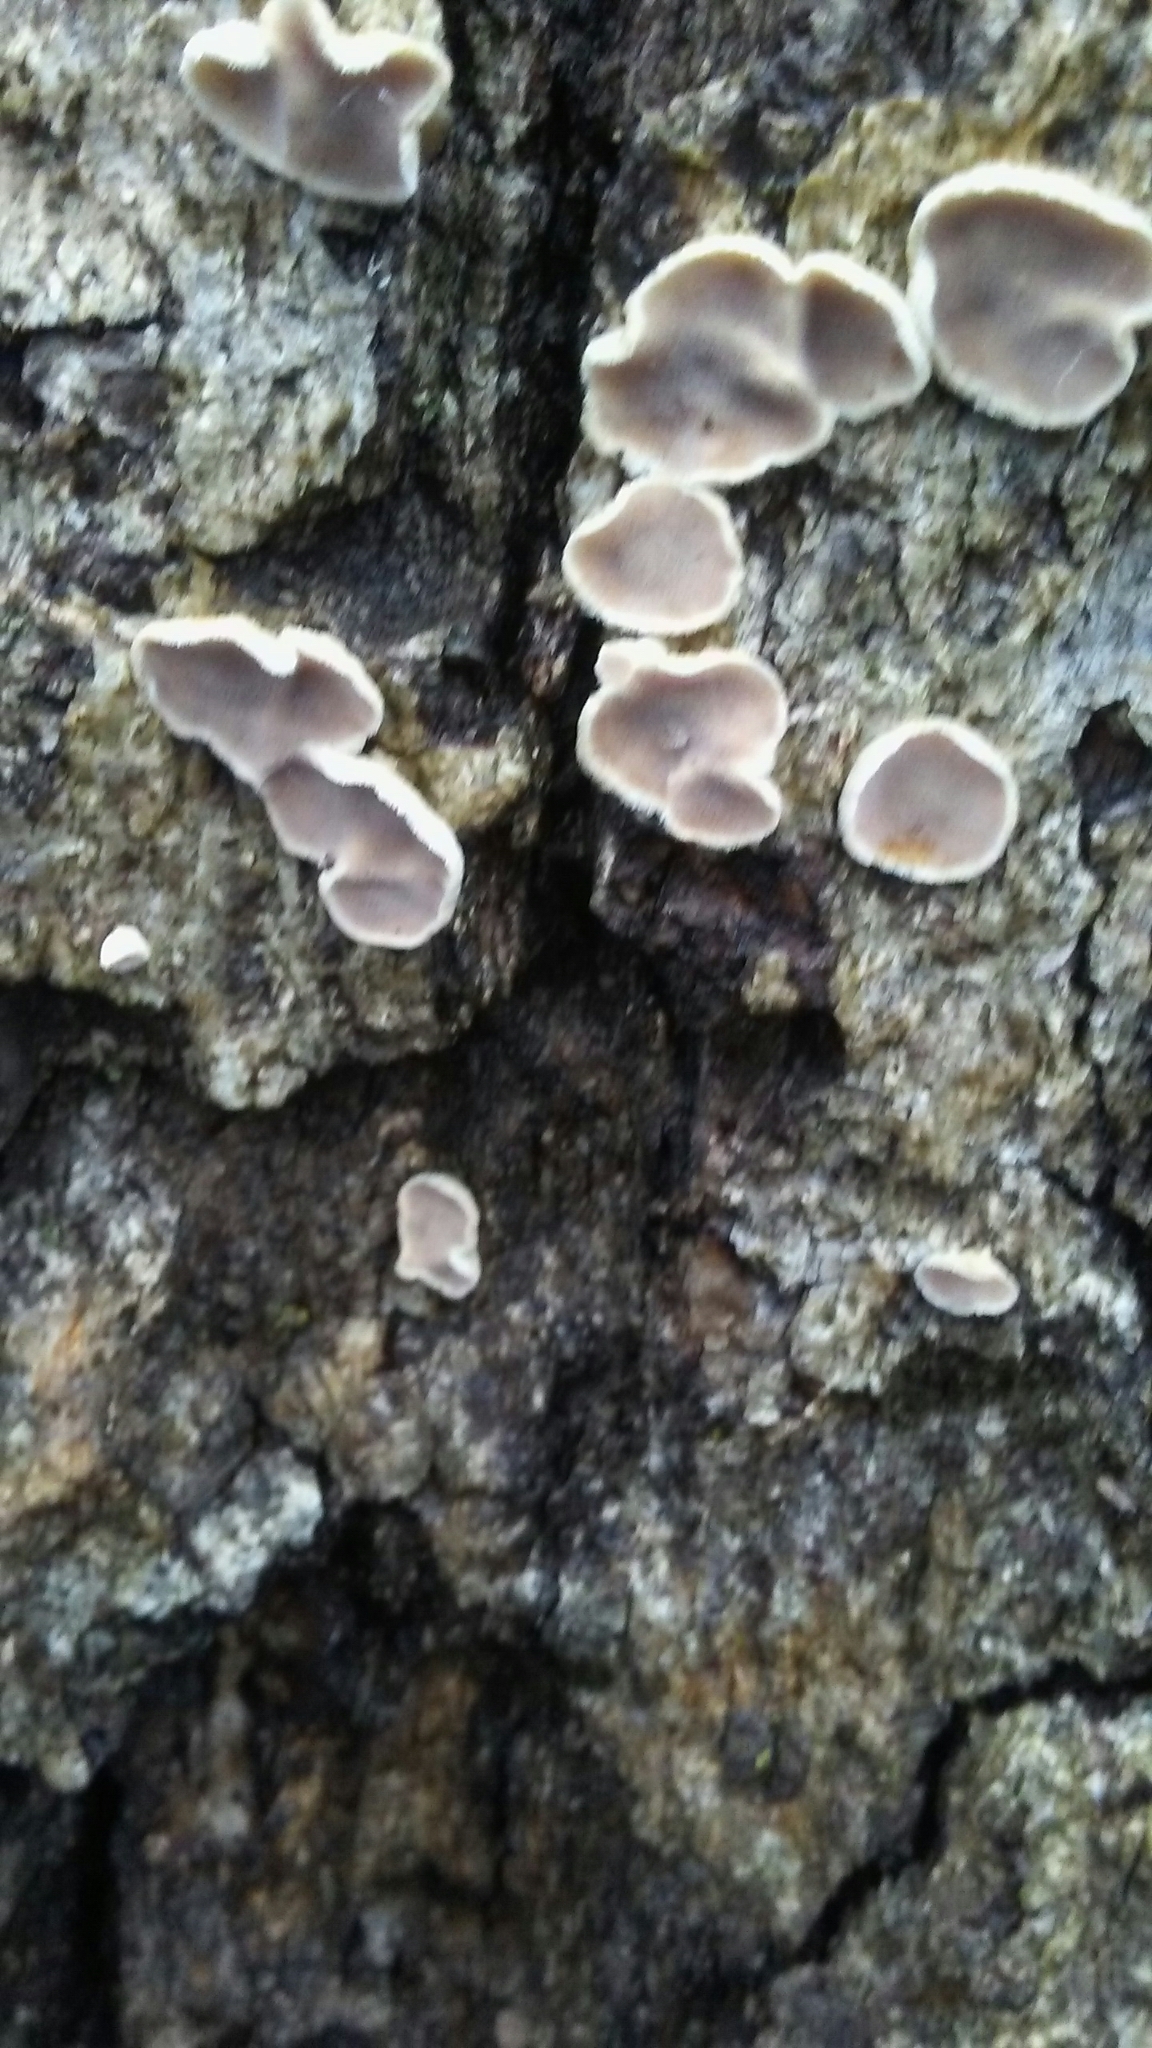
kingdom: Fungi
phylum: Basidiomycota
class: Agaricomycetes
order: Russulales
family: Stereaceae
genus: Acanthophysium
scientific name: Acanthophysium oakesii
